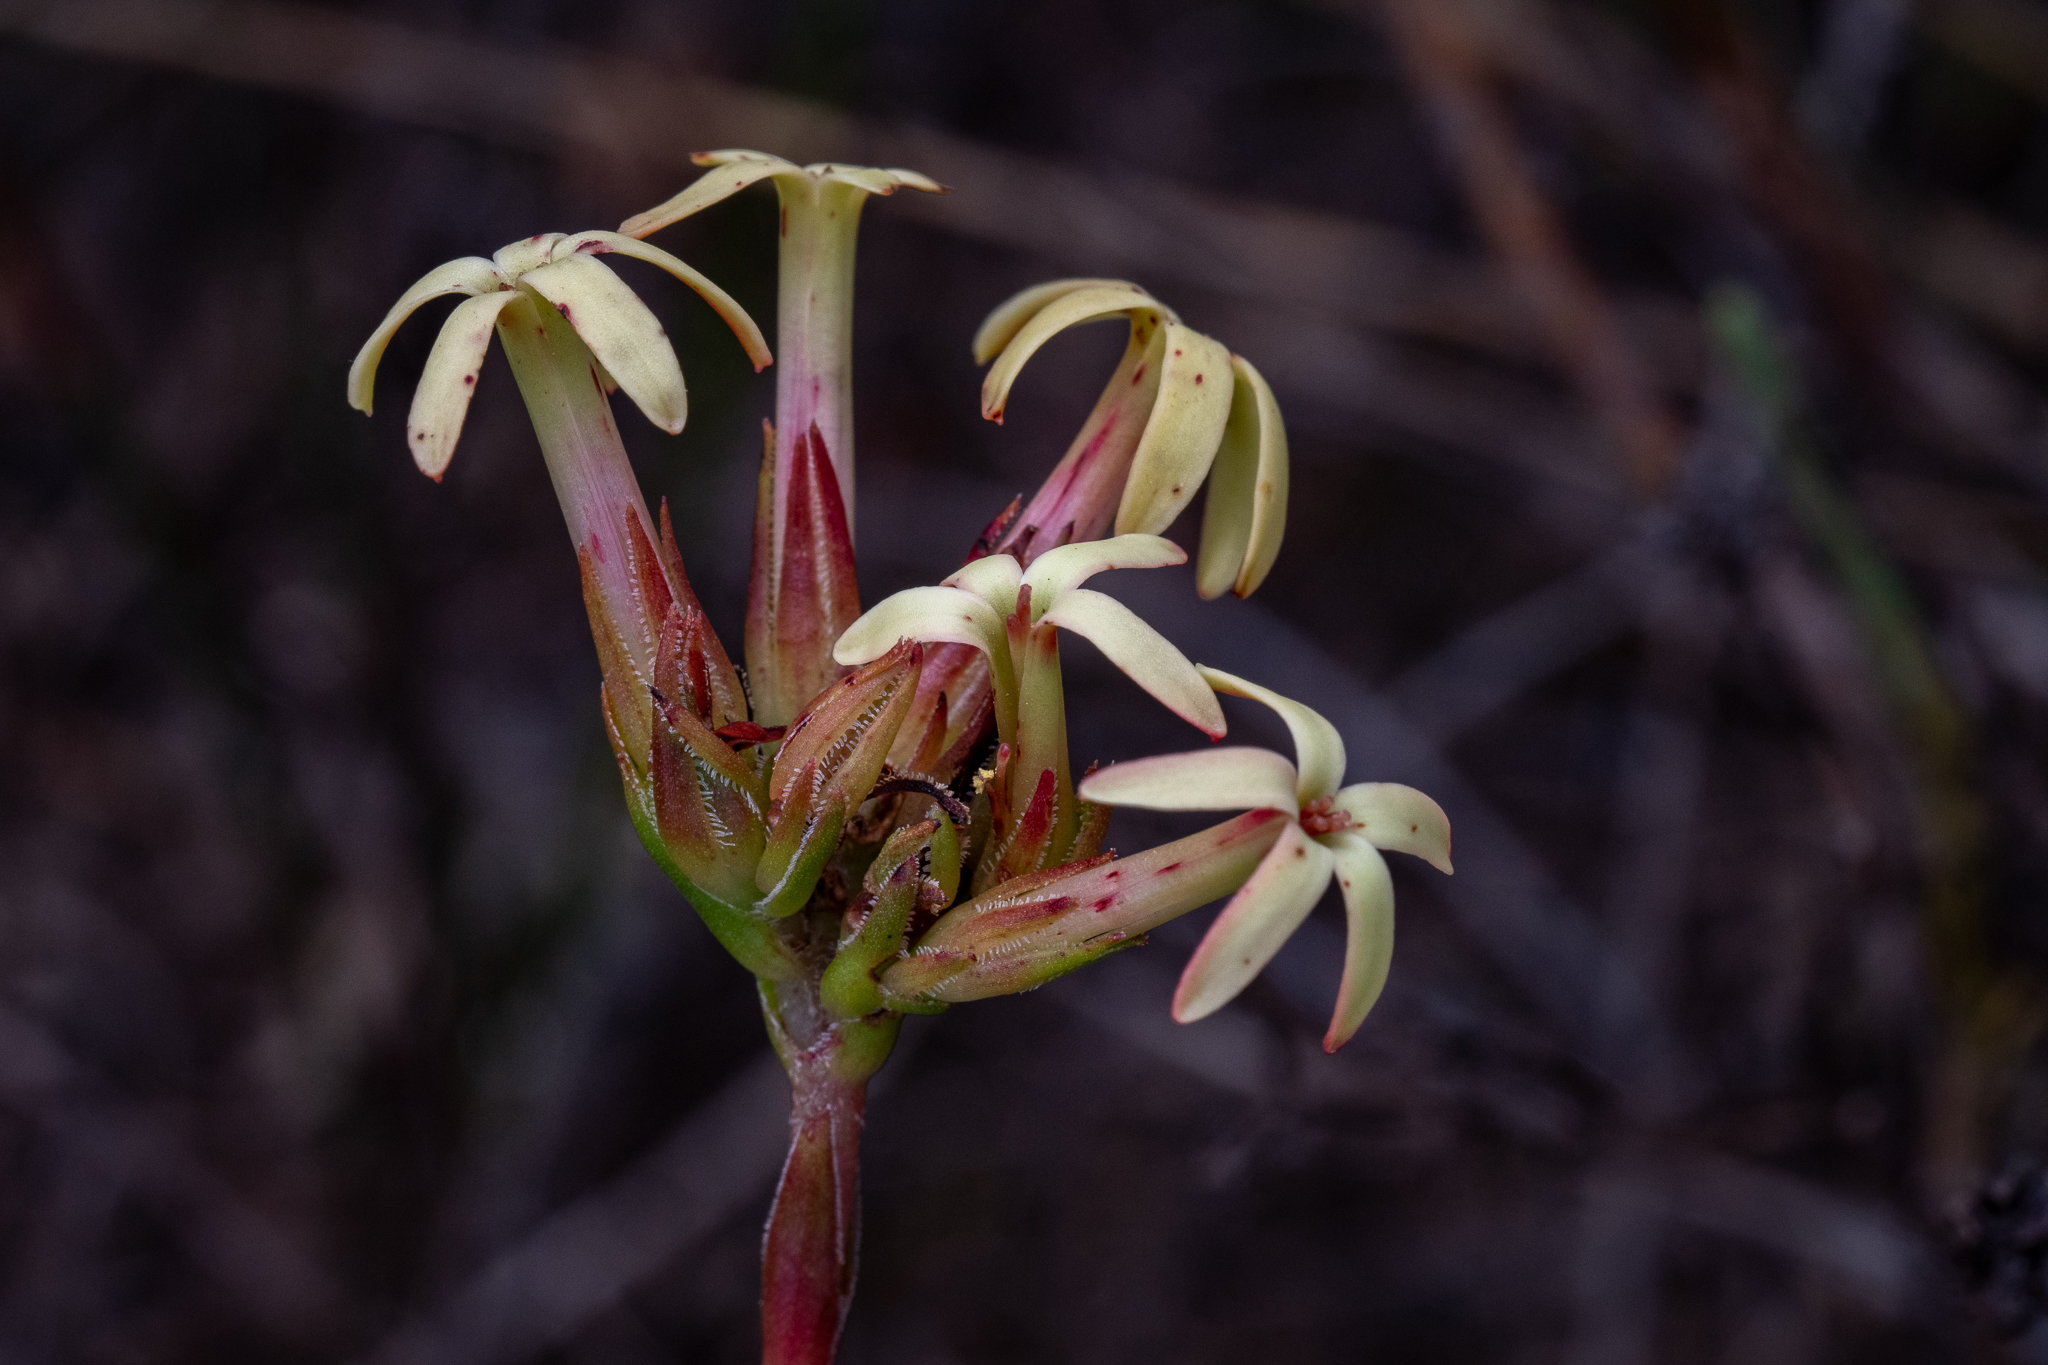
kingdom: Plantae
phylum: Tracheophyta
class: Magnoliopsida
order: Saxifragales
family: Crassulaceae
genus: Crassula
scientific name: Crassula fascicularis
